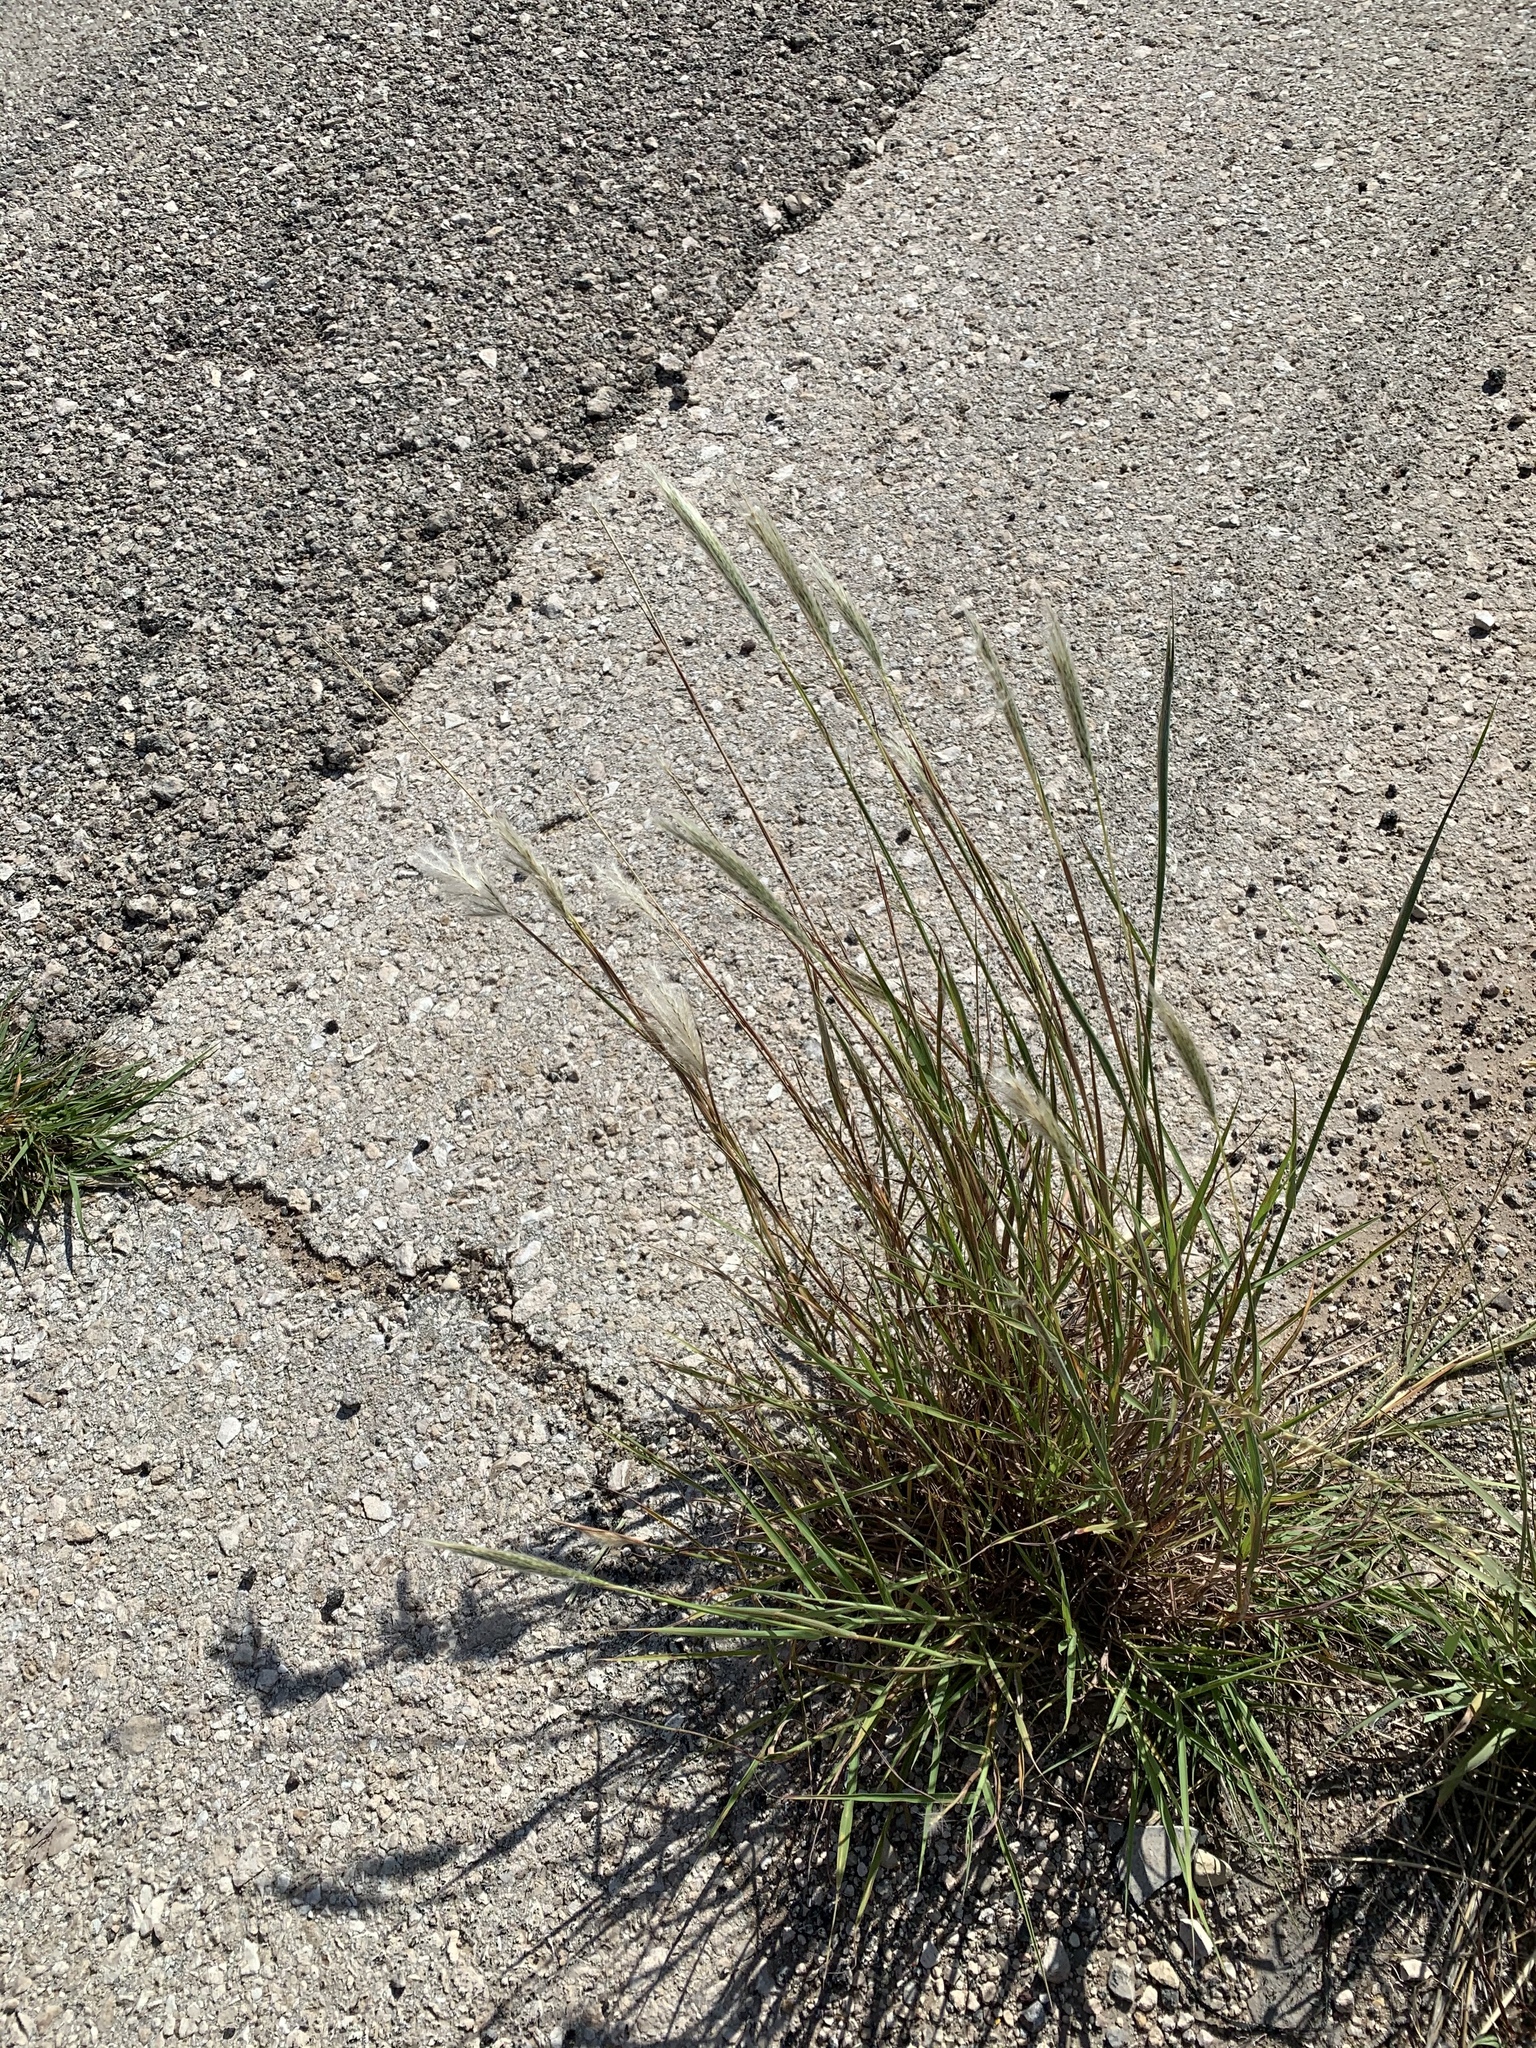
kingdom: Plantae
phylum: Tracheophyta
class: Liliopsida
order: Poales
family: Poaceae
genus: Bothriochloa
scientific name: Bothriochloa torreyana
